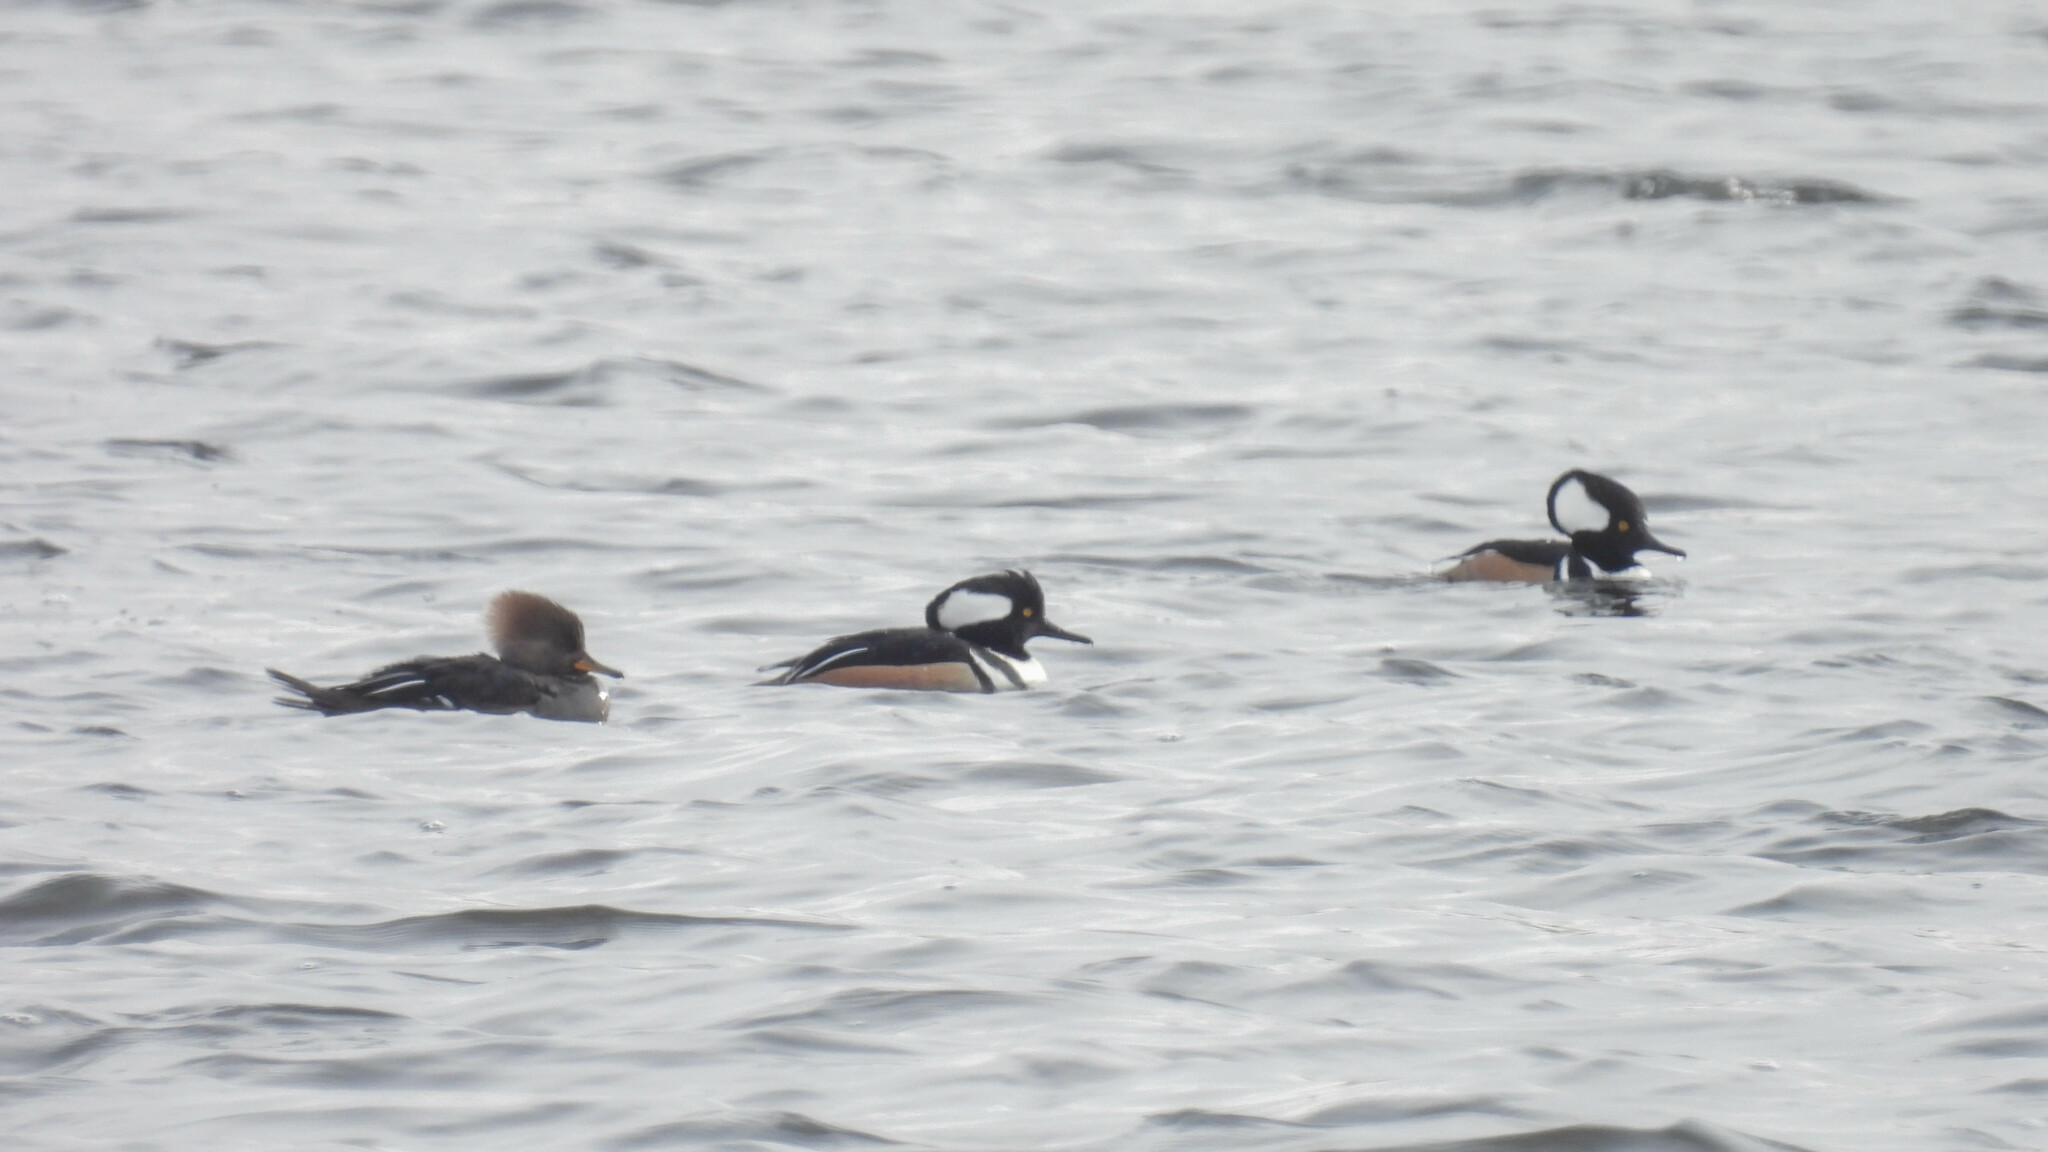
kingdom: Animalia
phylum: Chordata
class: Aves
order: Anseriformes
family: Anatidae
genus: Lophodytes
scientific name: Lophodytes cucullatus
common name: Hooded merganser
